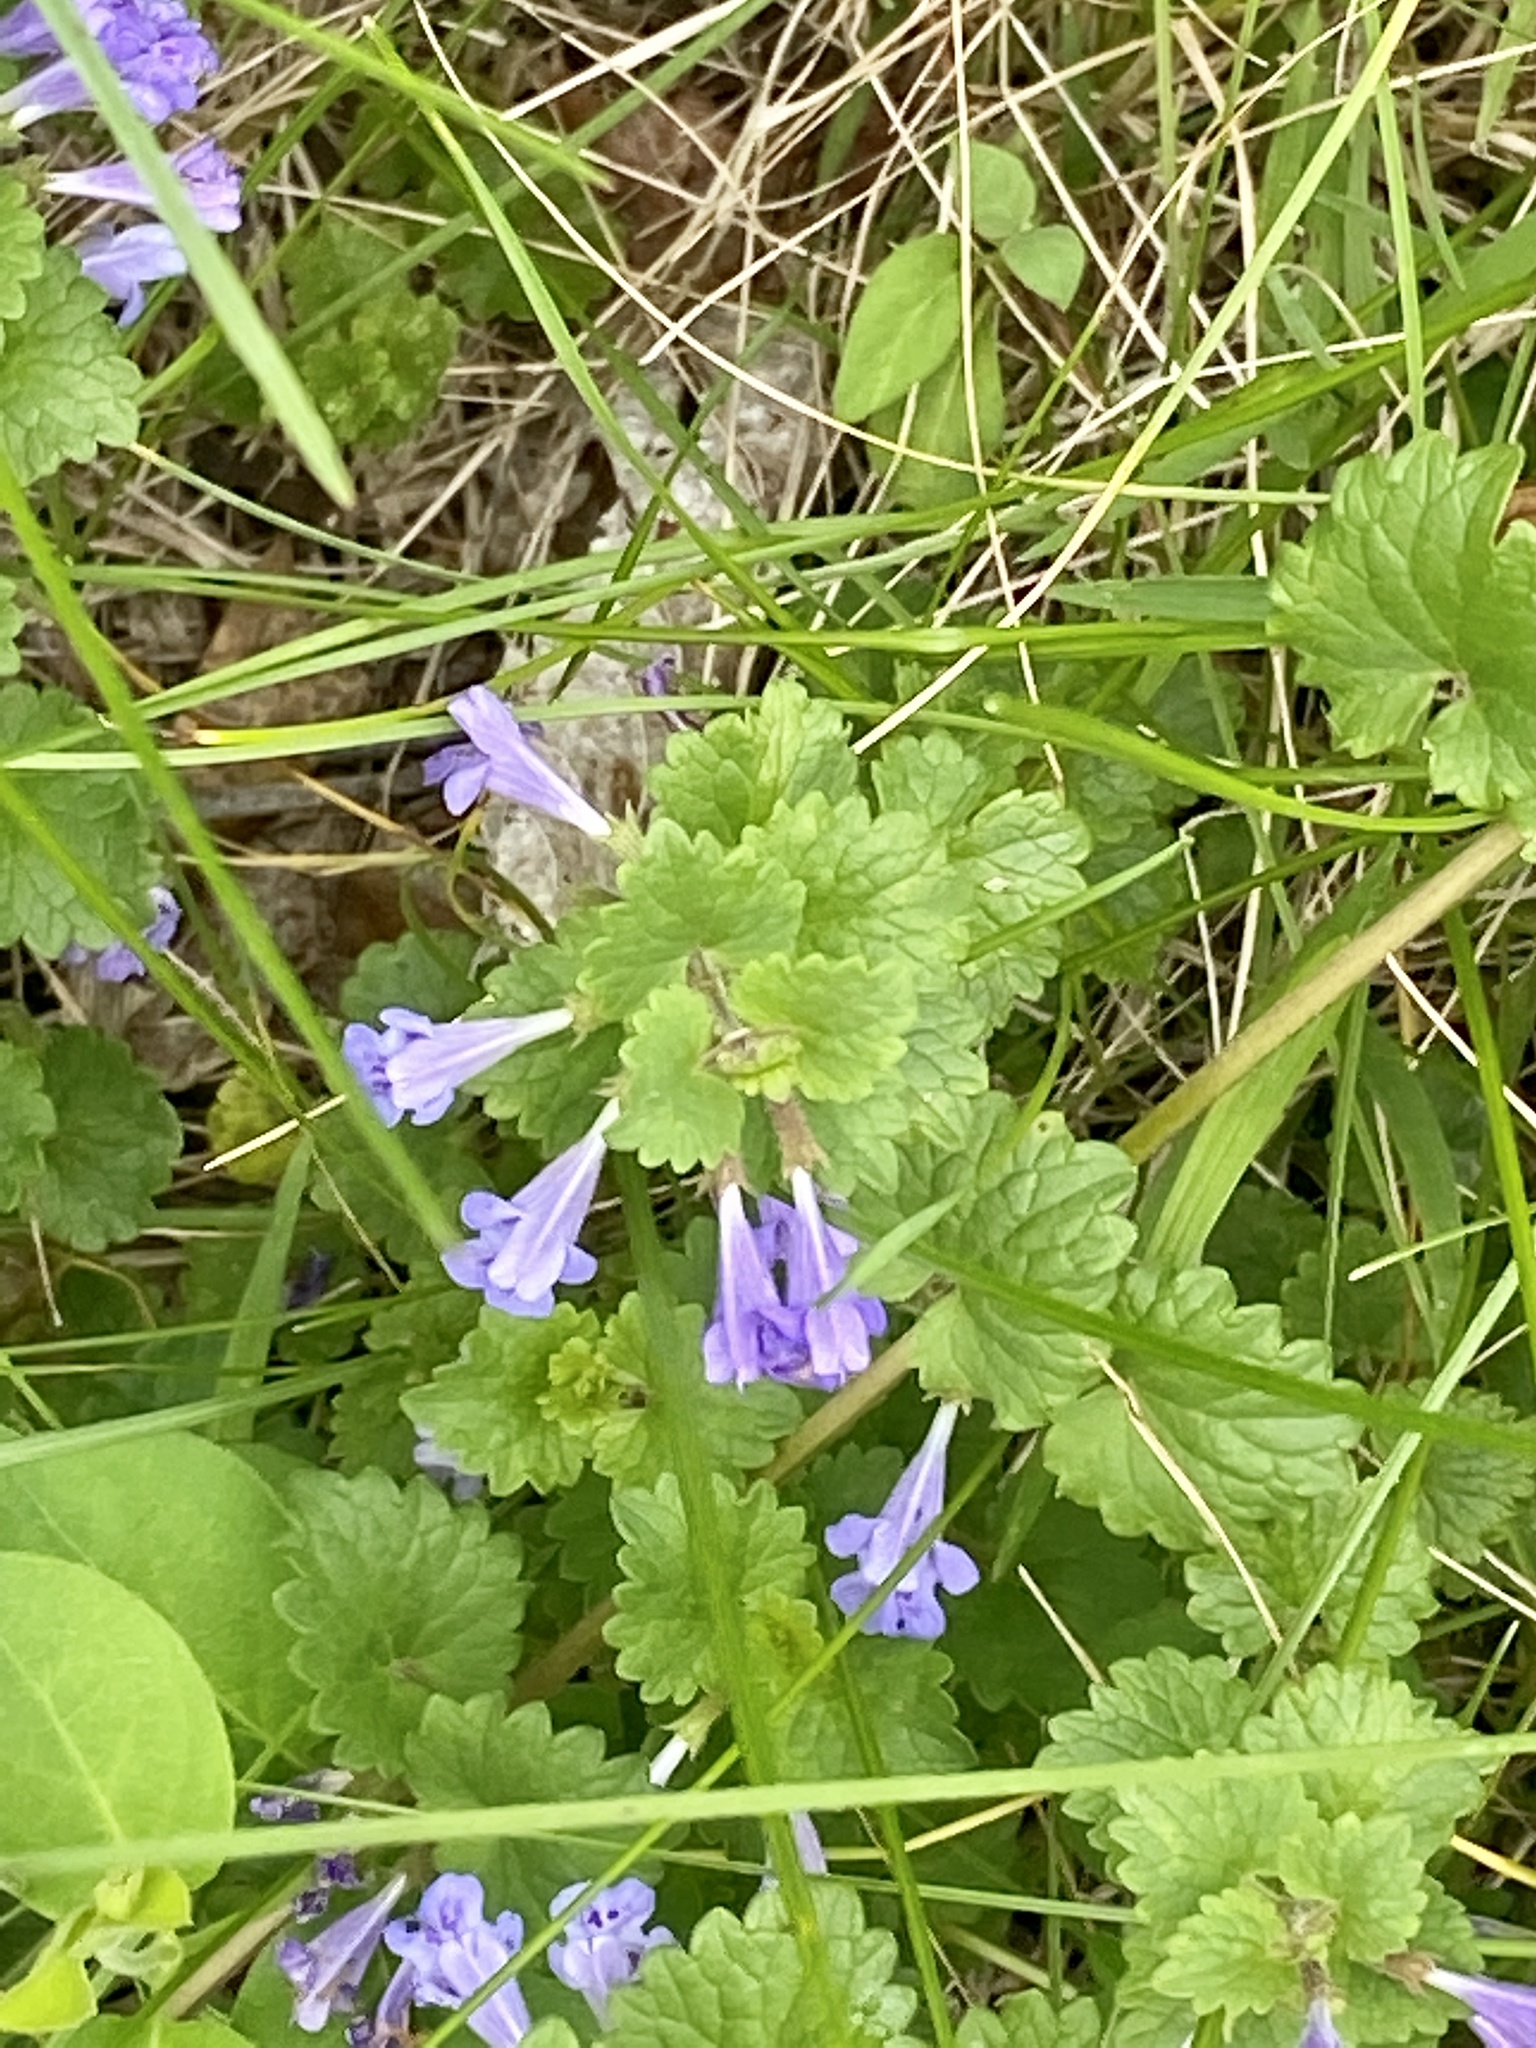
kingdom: Plantae
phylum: Tracheophyta
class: Magnoliopsida
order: Lamiales
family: Lamiaceae
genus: Glechoma
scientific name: Glechoma hederacea
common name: Ground ivy
